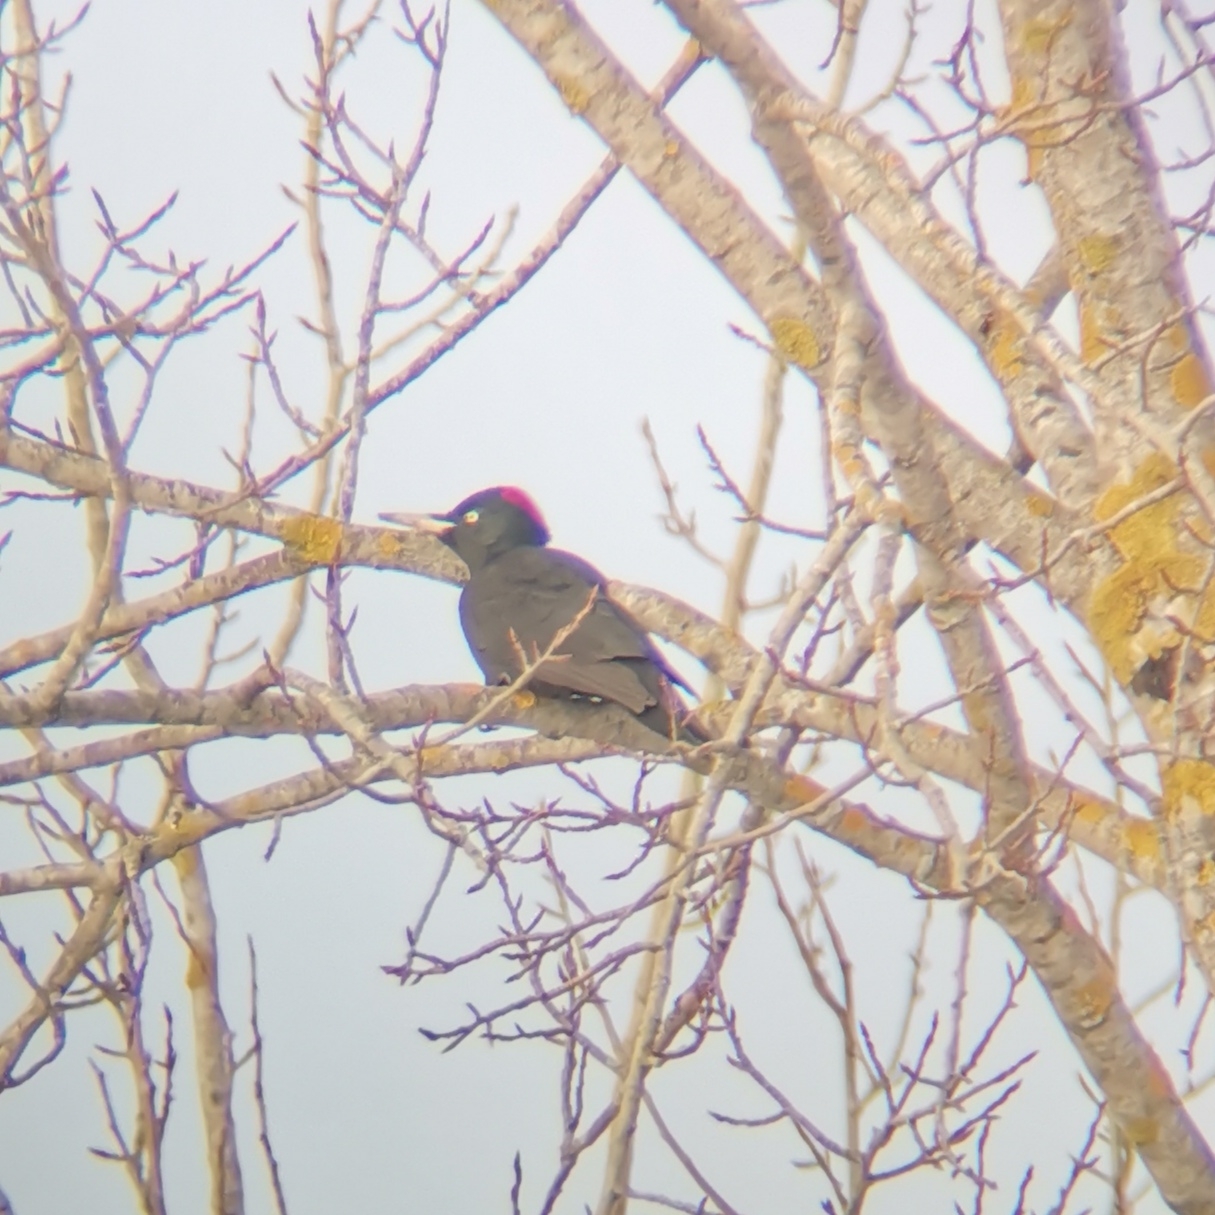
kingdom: Animalia
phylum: Chordata
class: Aves
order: Piciformes
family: Picidae
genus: Dryocopus
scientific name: Dryocopus martius
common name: Black woodpecker
